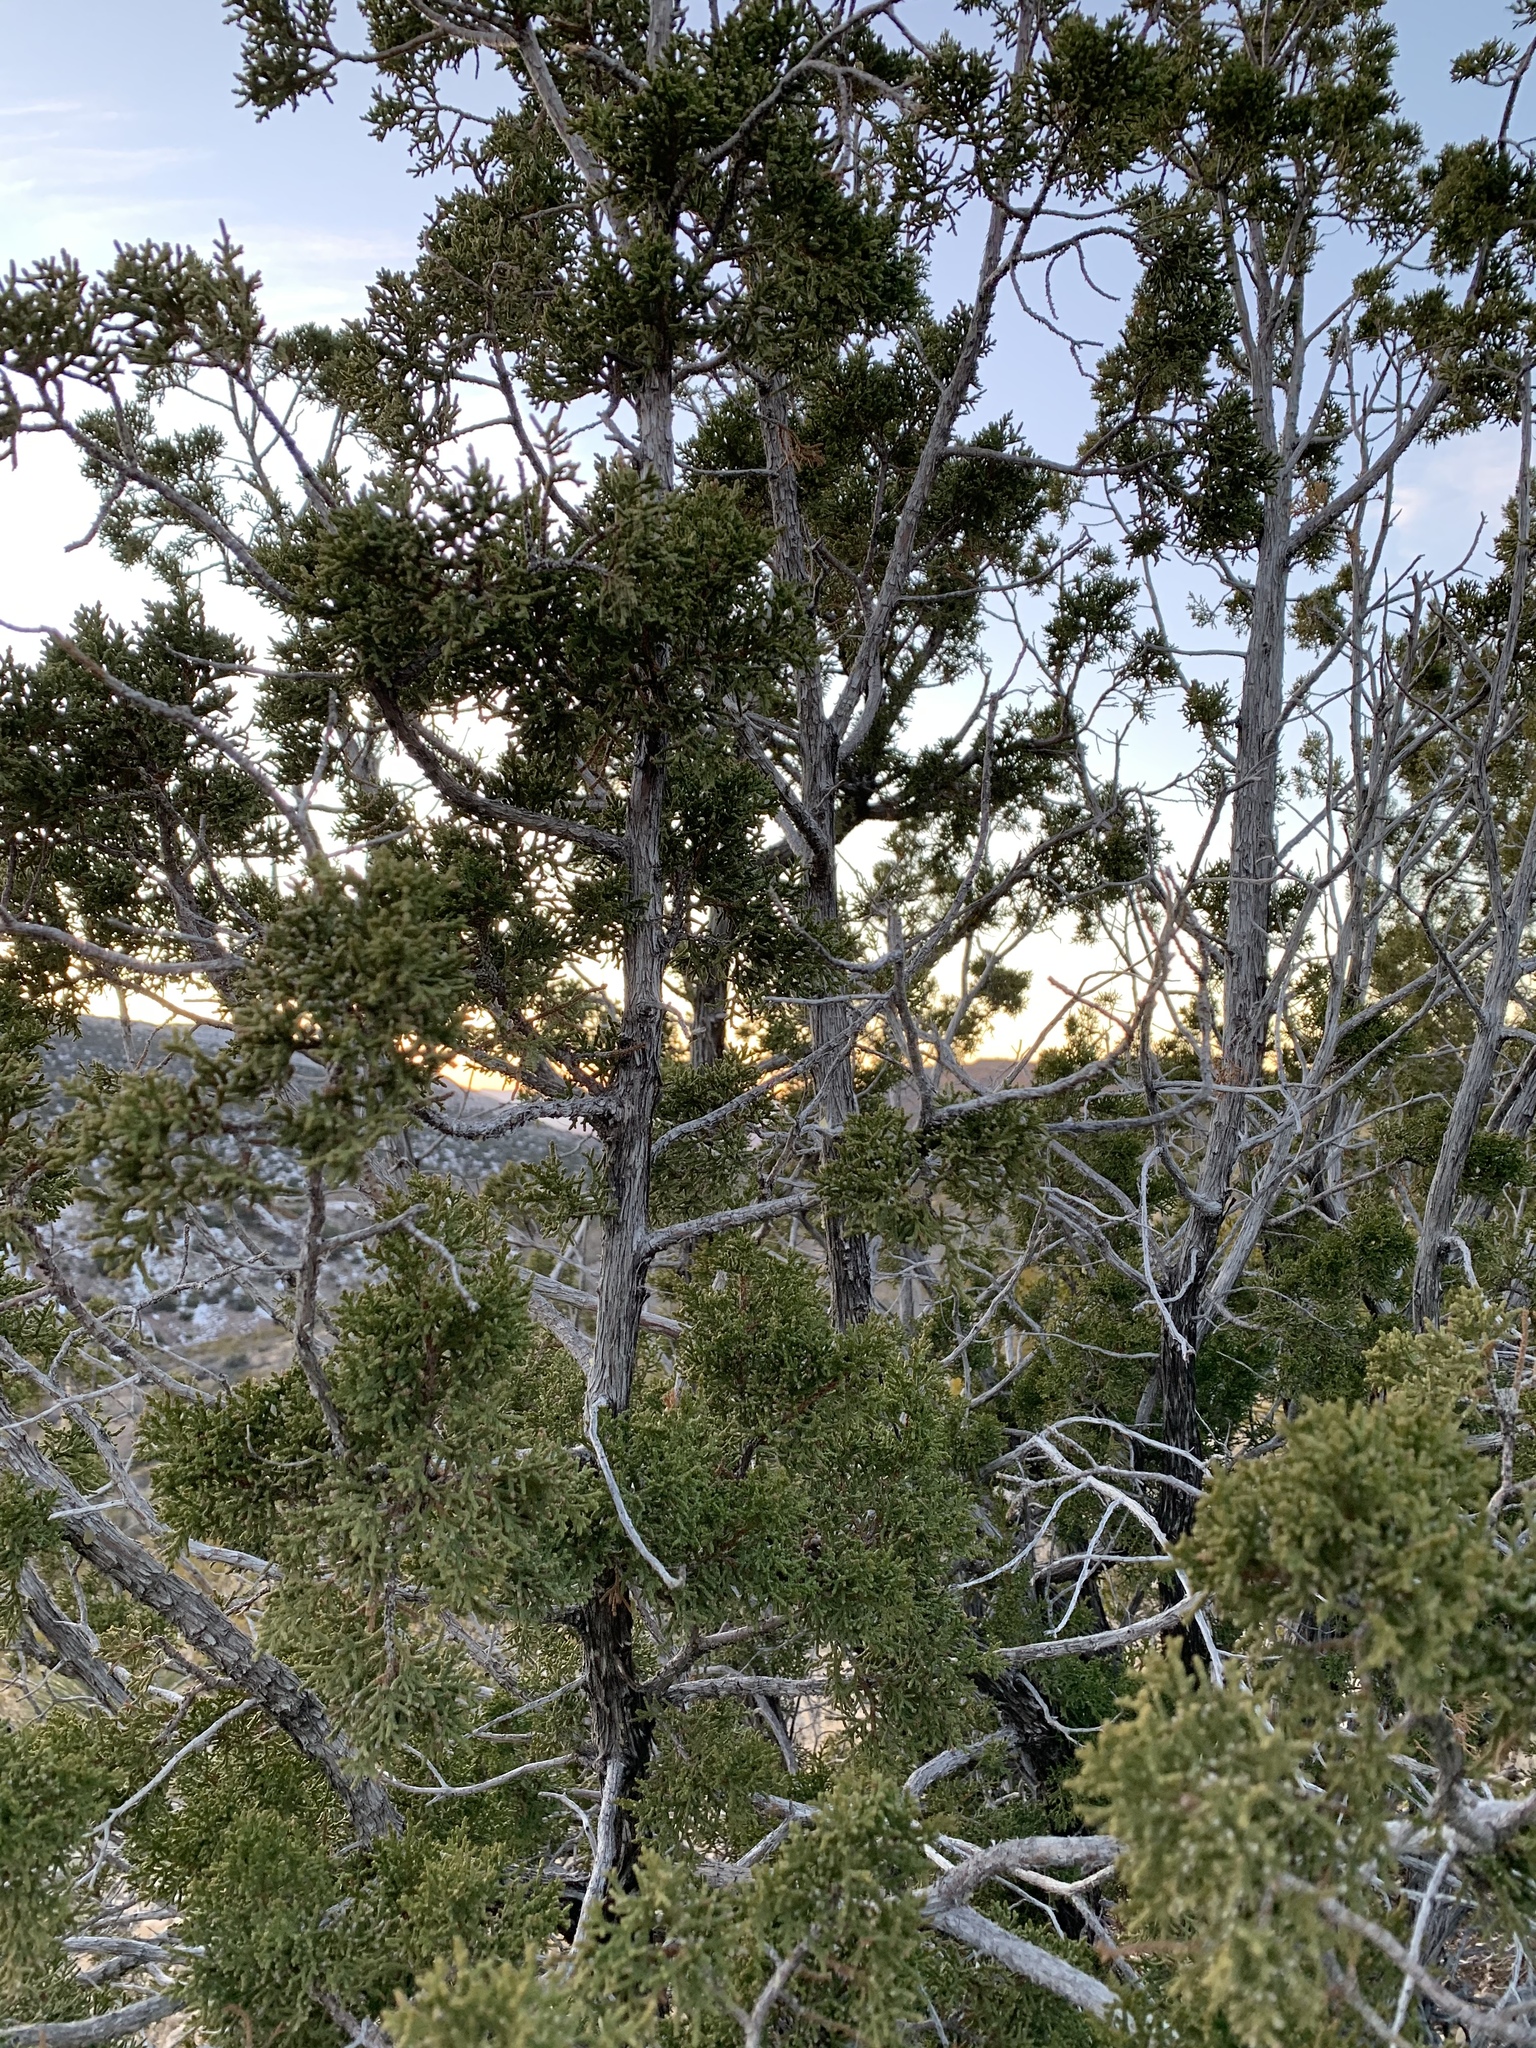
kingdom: Plantae
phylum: Tracheophyta
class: Pinopsida
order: Pinales
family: Cupressaceae
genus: Juniperus
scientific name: Juniperus monosperma
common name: One-seed juniper
